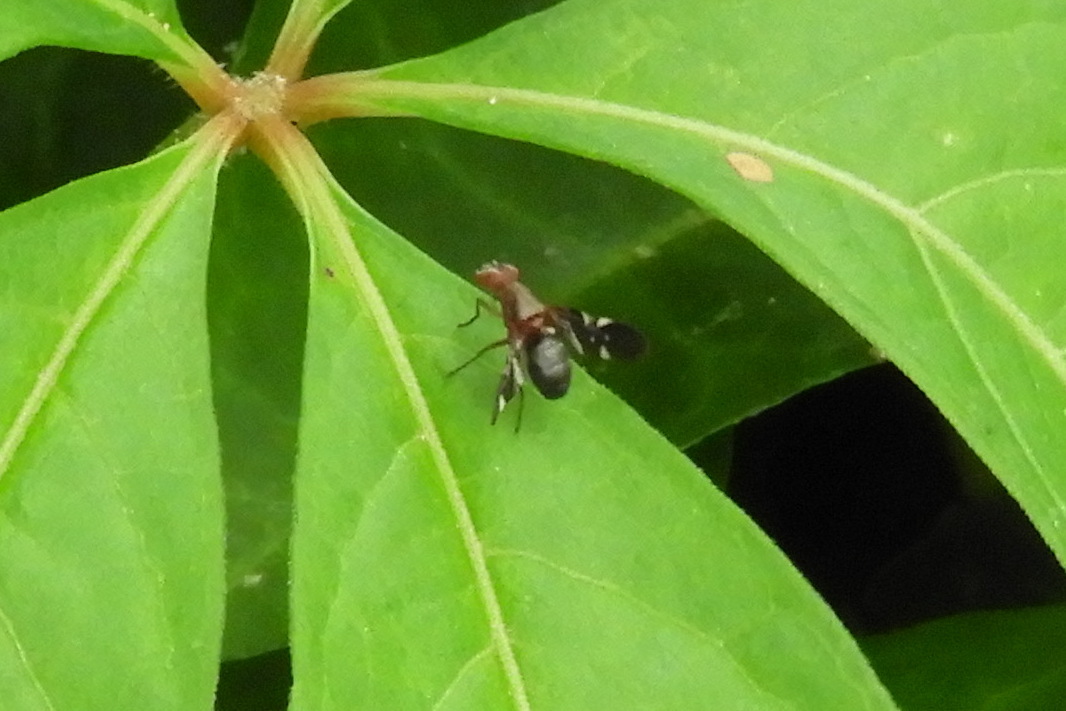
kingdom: Animalia
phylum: Arthropoda
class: Insecta
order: Diptera
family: Ulidiidae
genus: Delphinia
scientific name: Delphinia picta
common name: Common picture-winged fly
